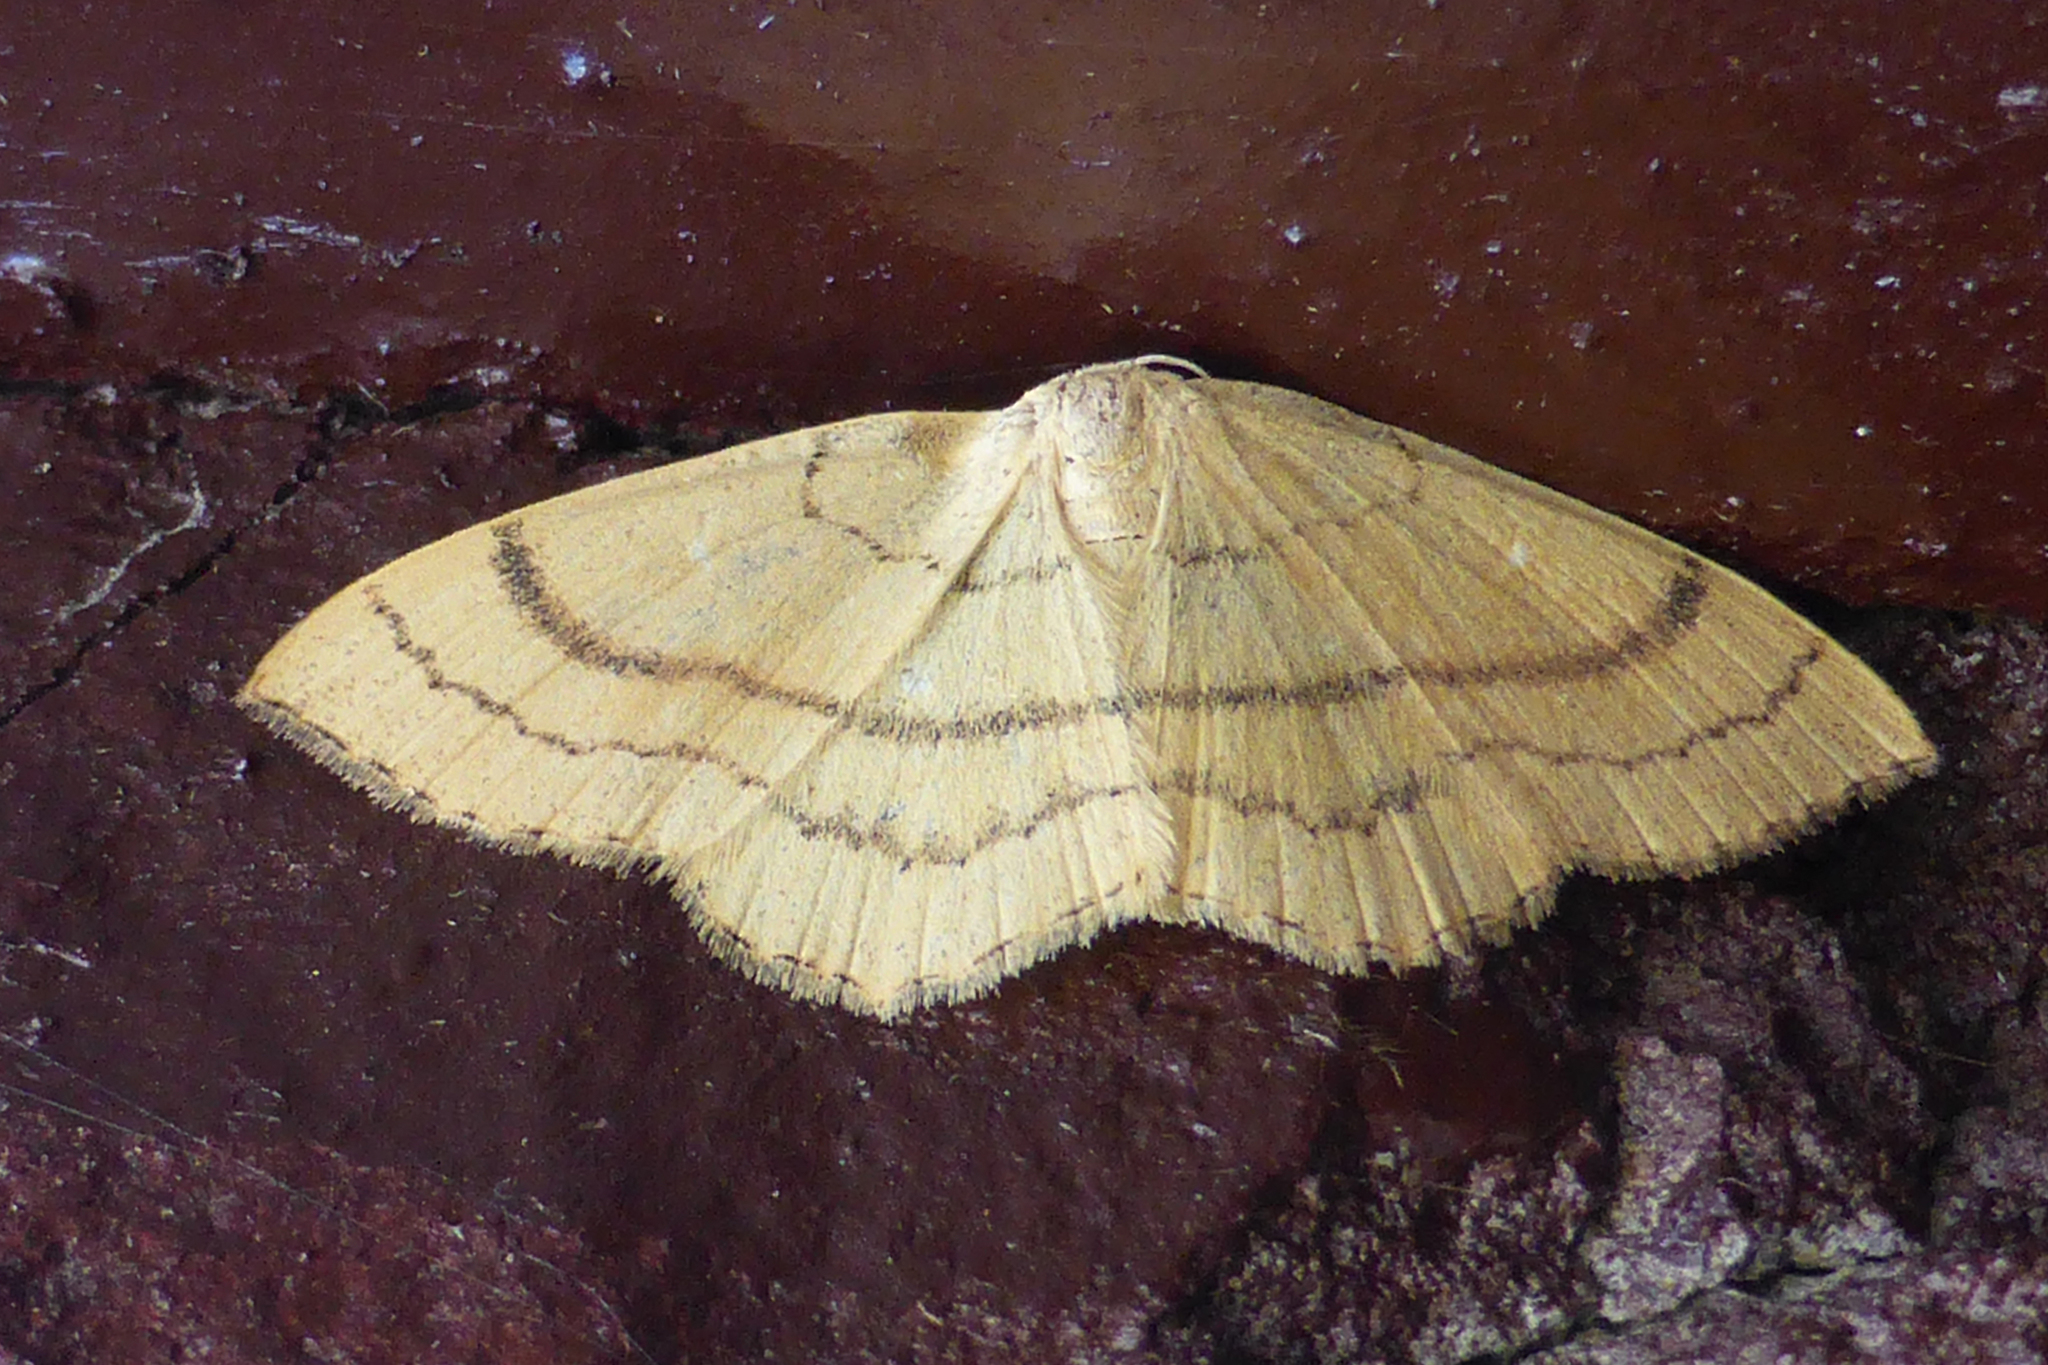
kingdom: Animalia
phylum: Arthropoda
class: Insecta
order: Lepidoptera
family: Geometridae
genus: Cyclophora
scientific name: Cyclophora linearia
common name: Clay triple-lines
